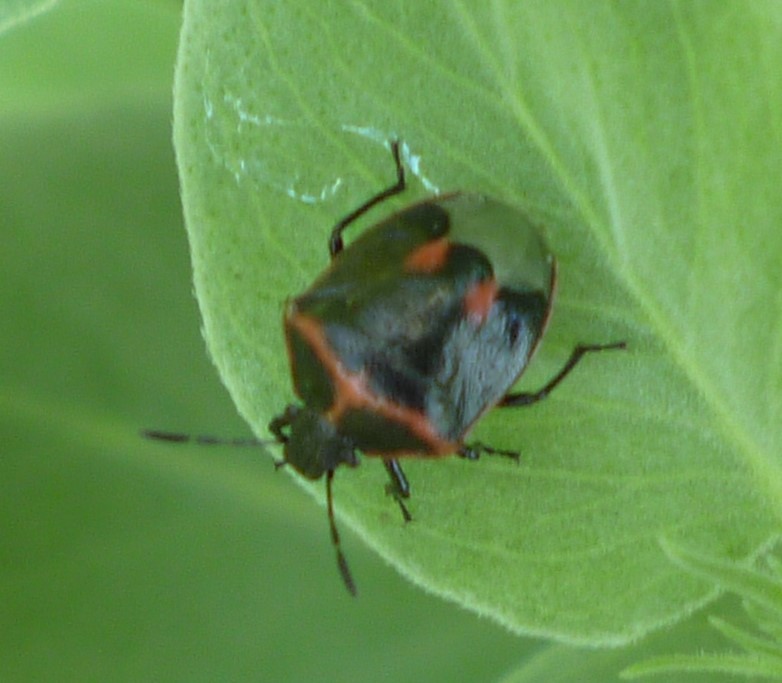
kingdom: Animalia
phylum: Arthropoda
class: Insecta
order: Hemiptera
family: Pentatomidae
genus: Cosmopepla
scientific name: Cosmopepla lintneriana
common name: Twice-stabbed stink bug
